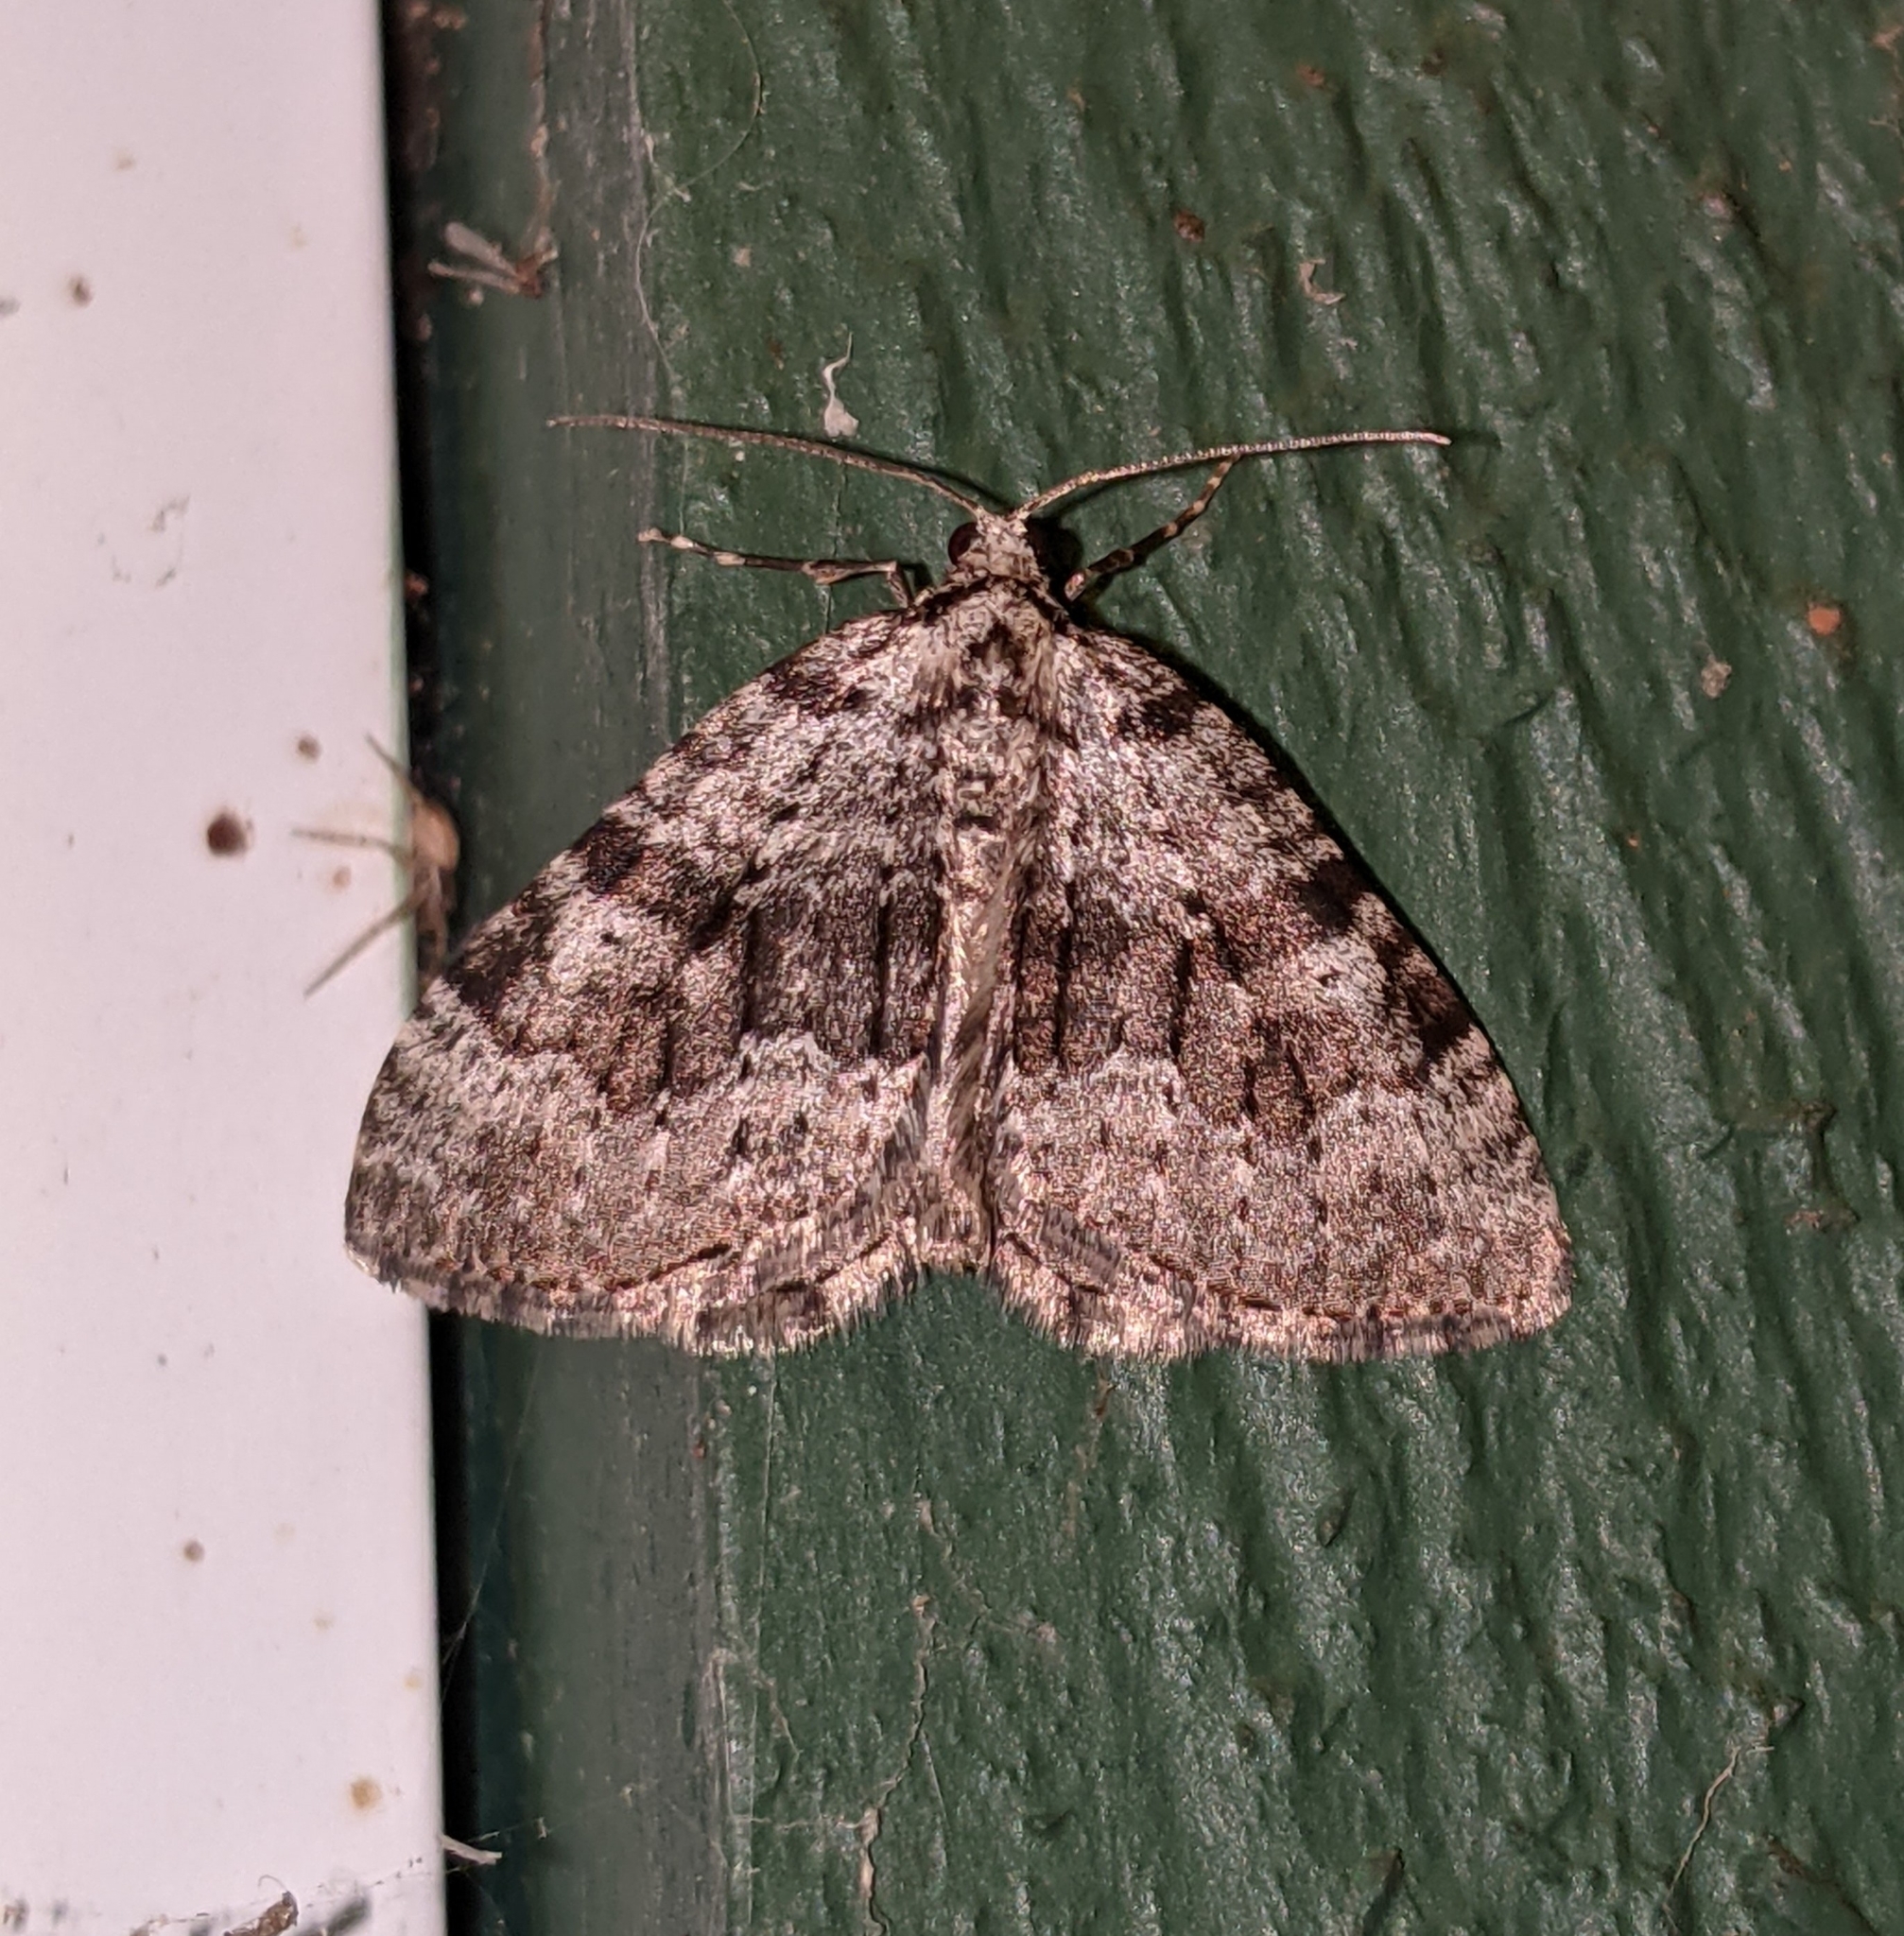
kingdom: Animalia
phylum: Arthropoda
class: Insecta
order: Lepidoptera
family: Geometridae
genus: Perizoma
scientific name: Perizoma curvilinea
